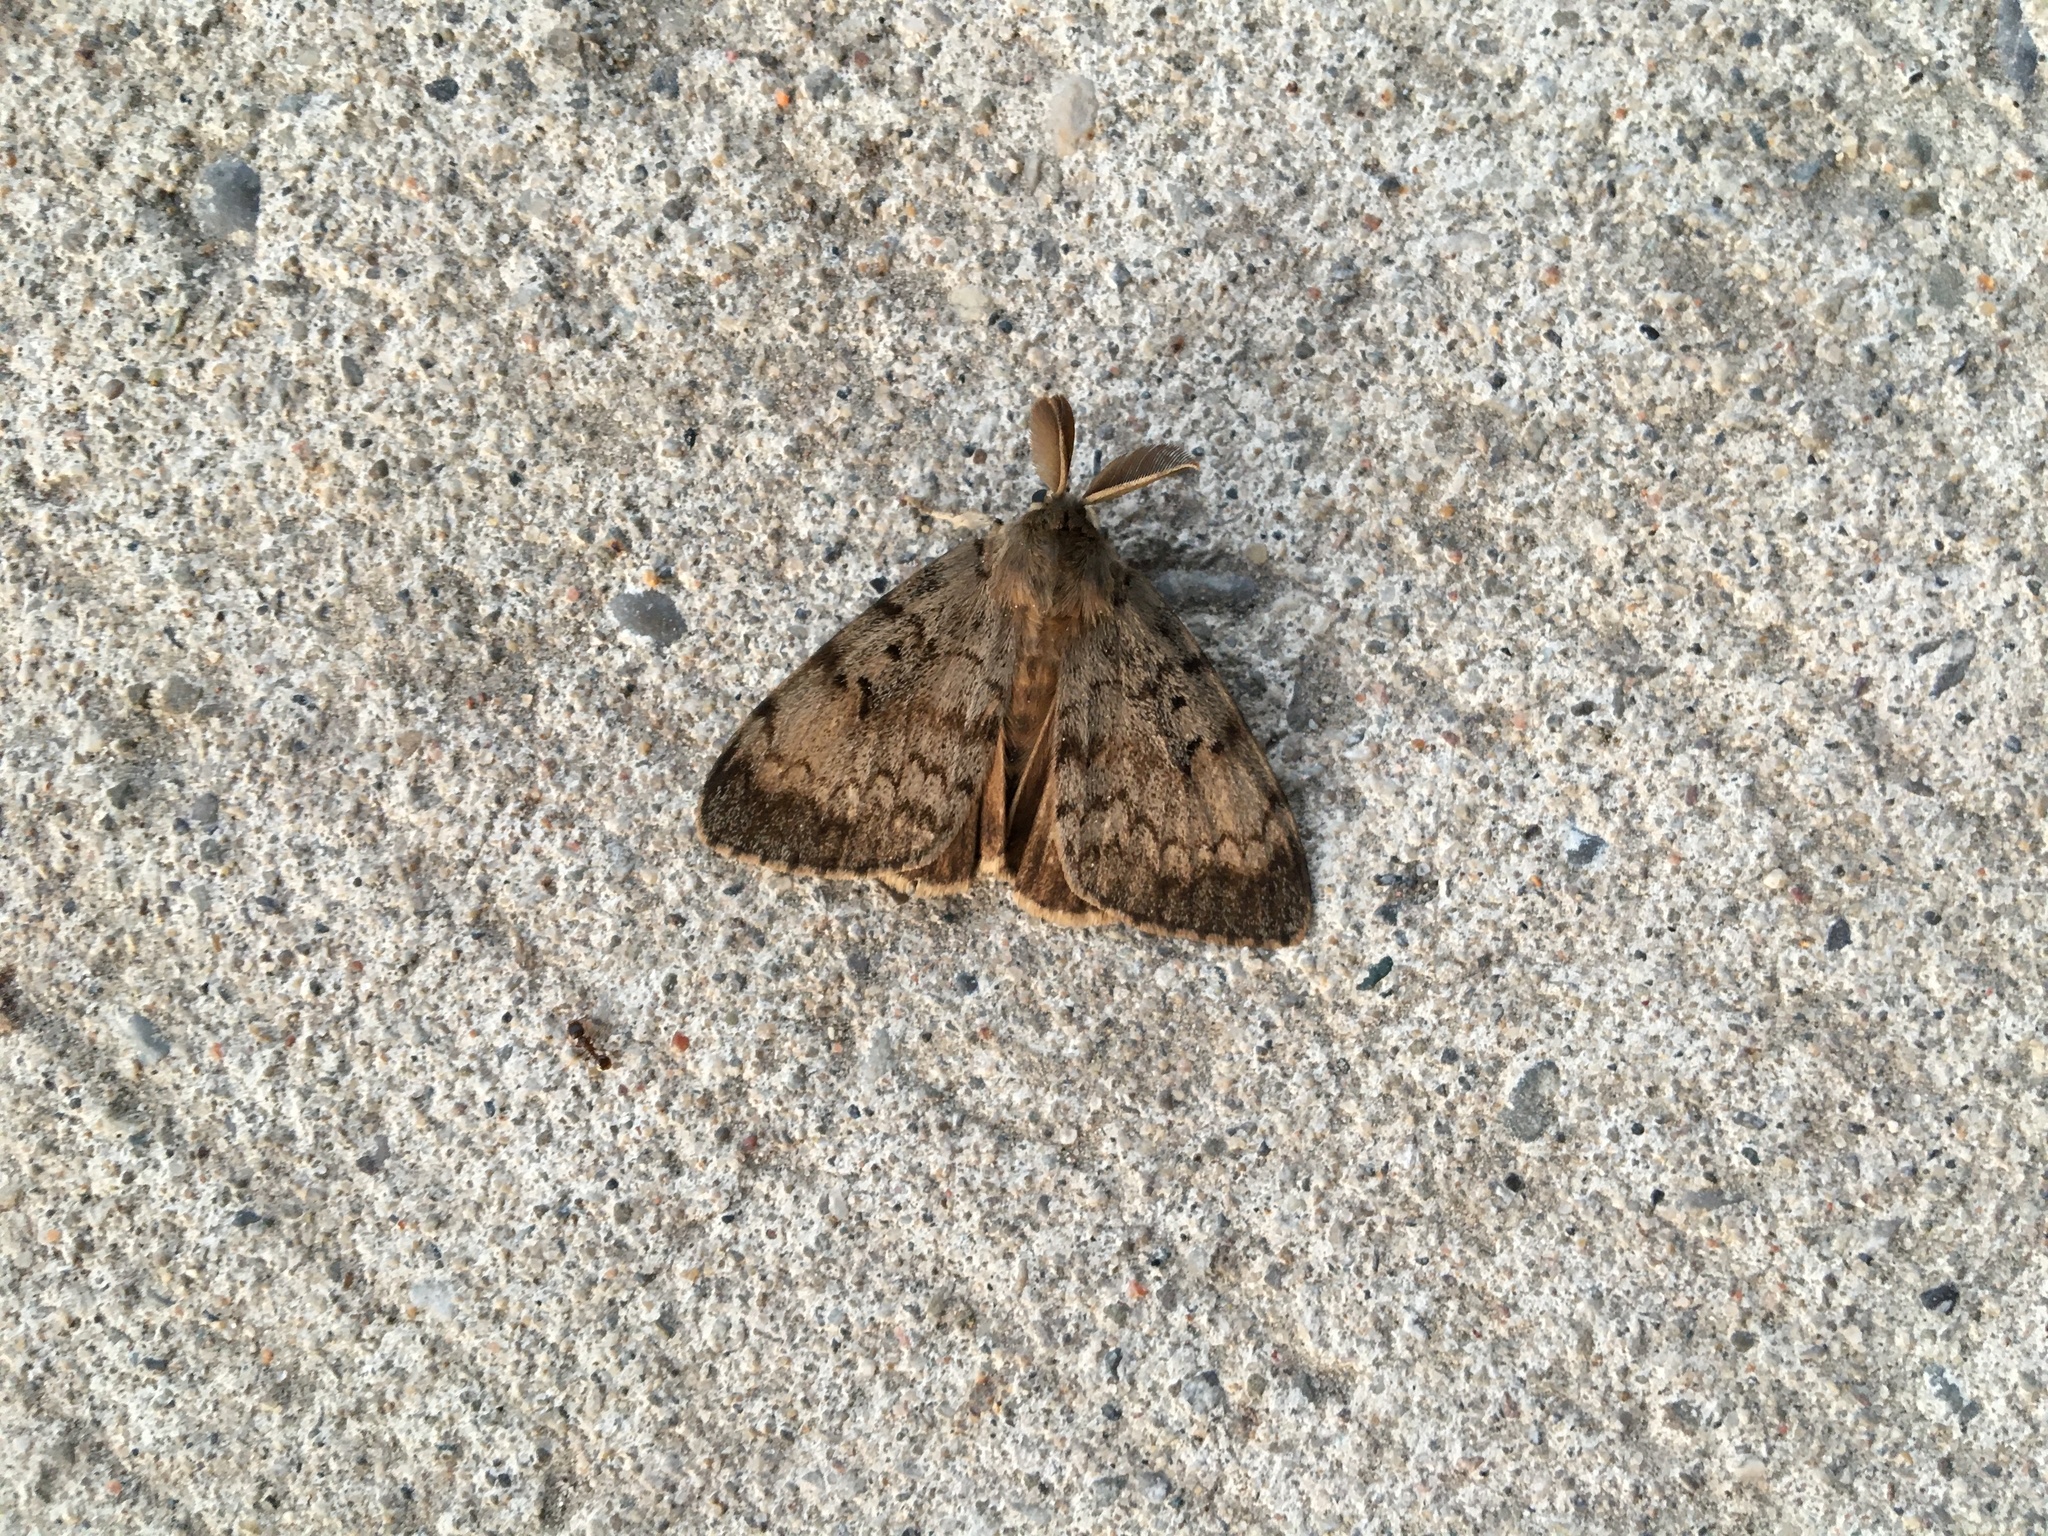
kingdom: Animalia
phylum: Arthropoda
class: Insecta
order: Lepidoptera
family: Erebidae
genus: Lymantria
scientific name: Lymantria dispar
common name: Gypsy moth
